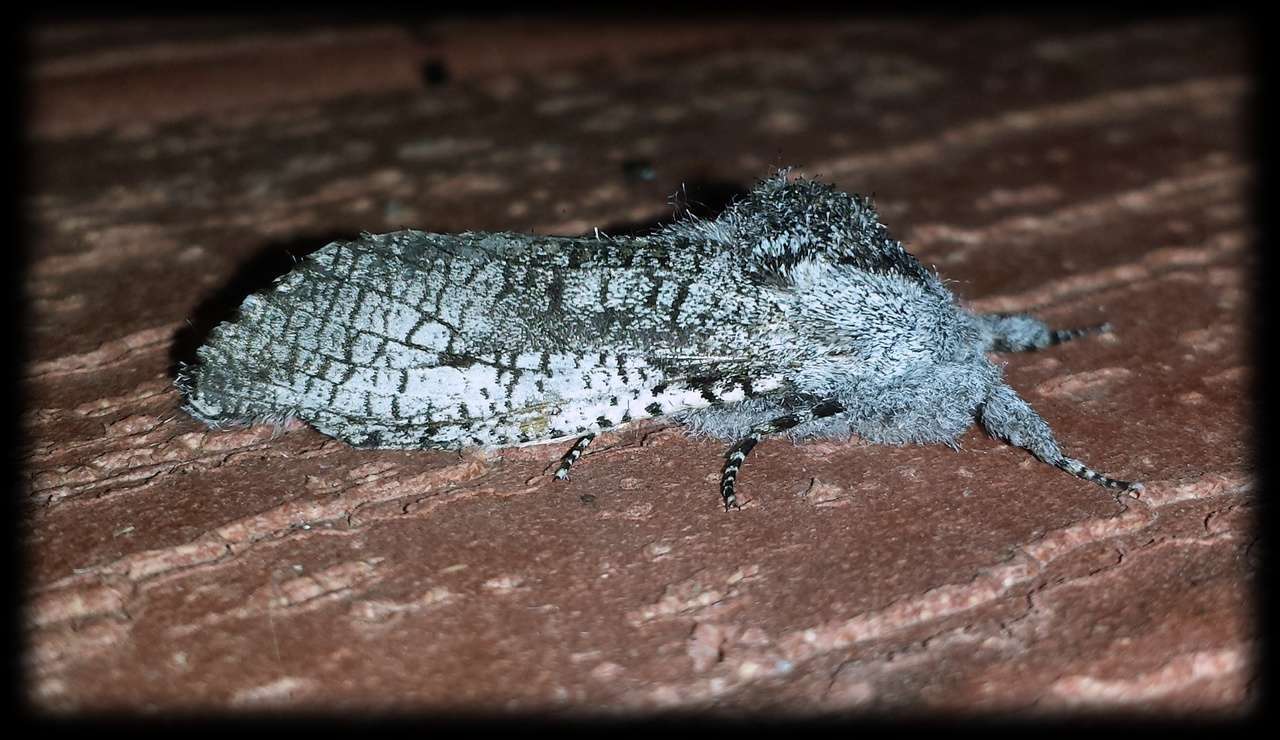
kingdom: Animalia
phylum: Arthropoda
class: Insecta
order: Lepidoptera
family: Cossidae
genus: Endoxyla
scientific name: Endoxyla secta
